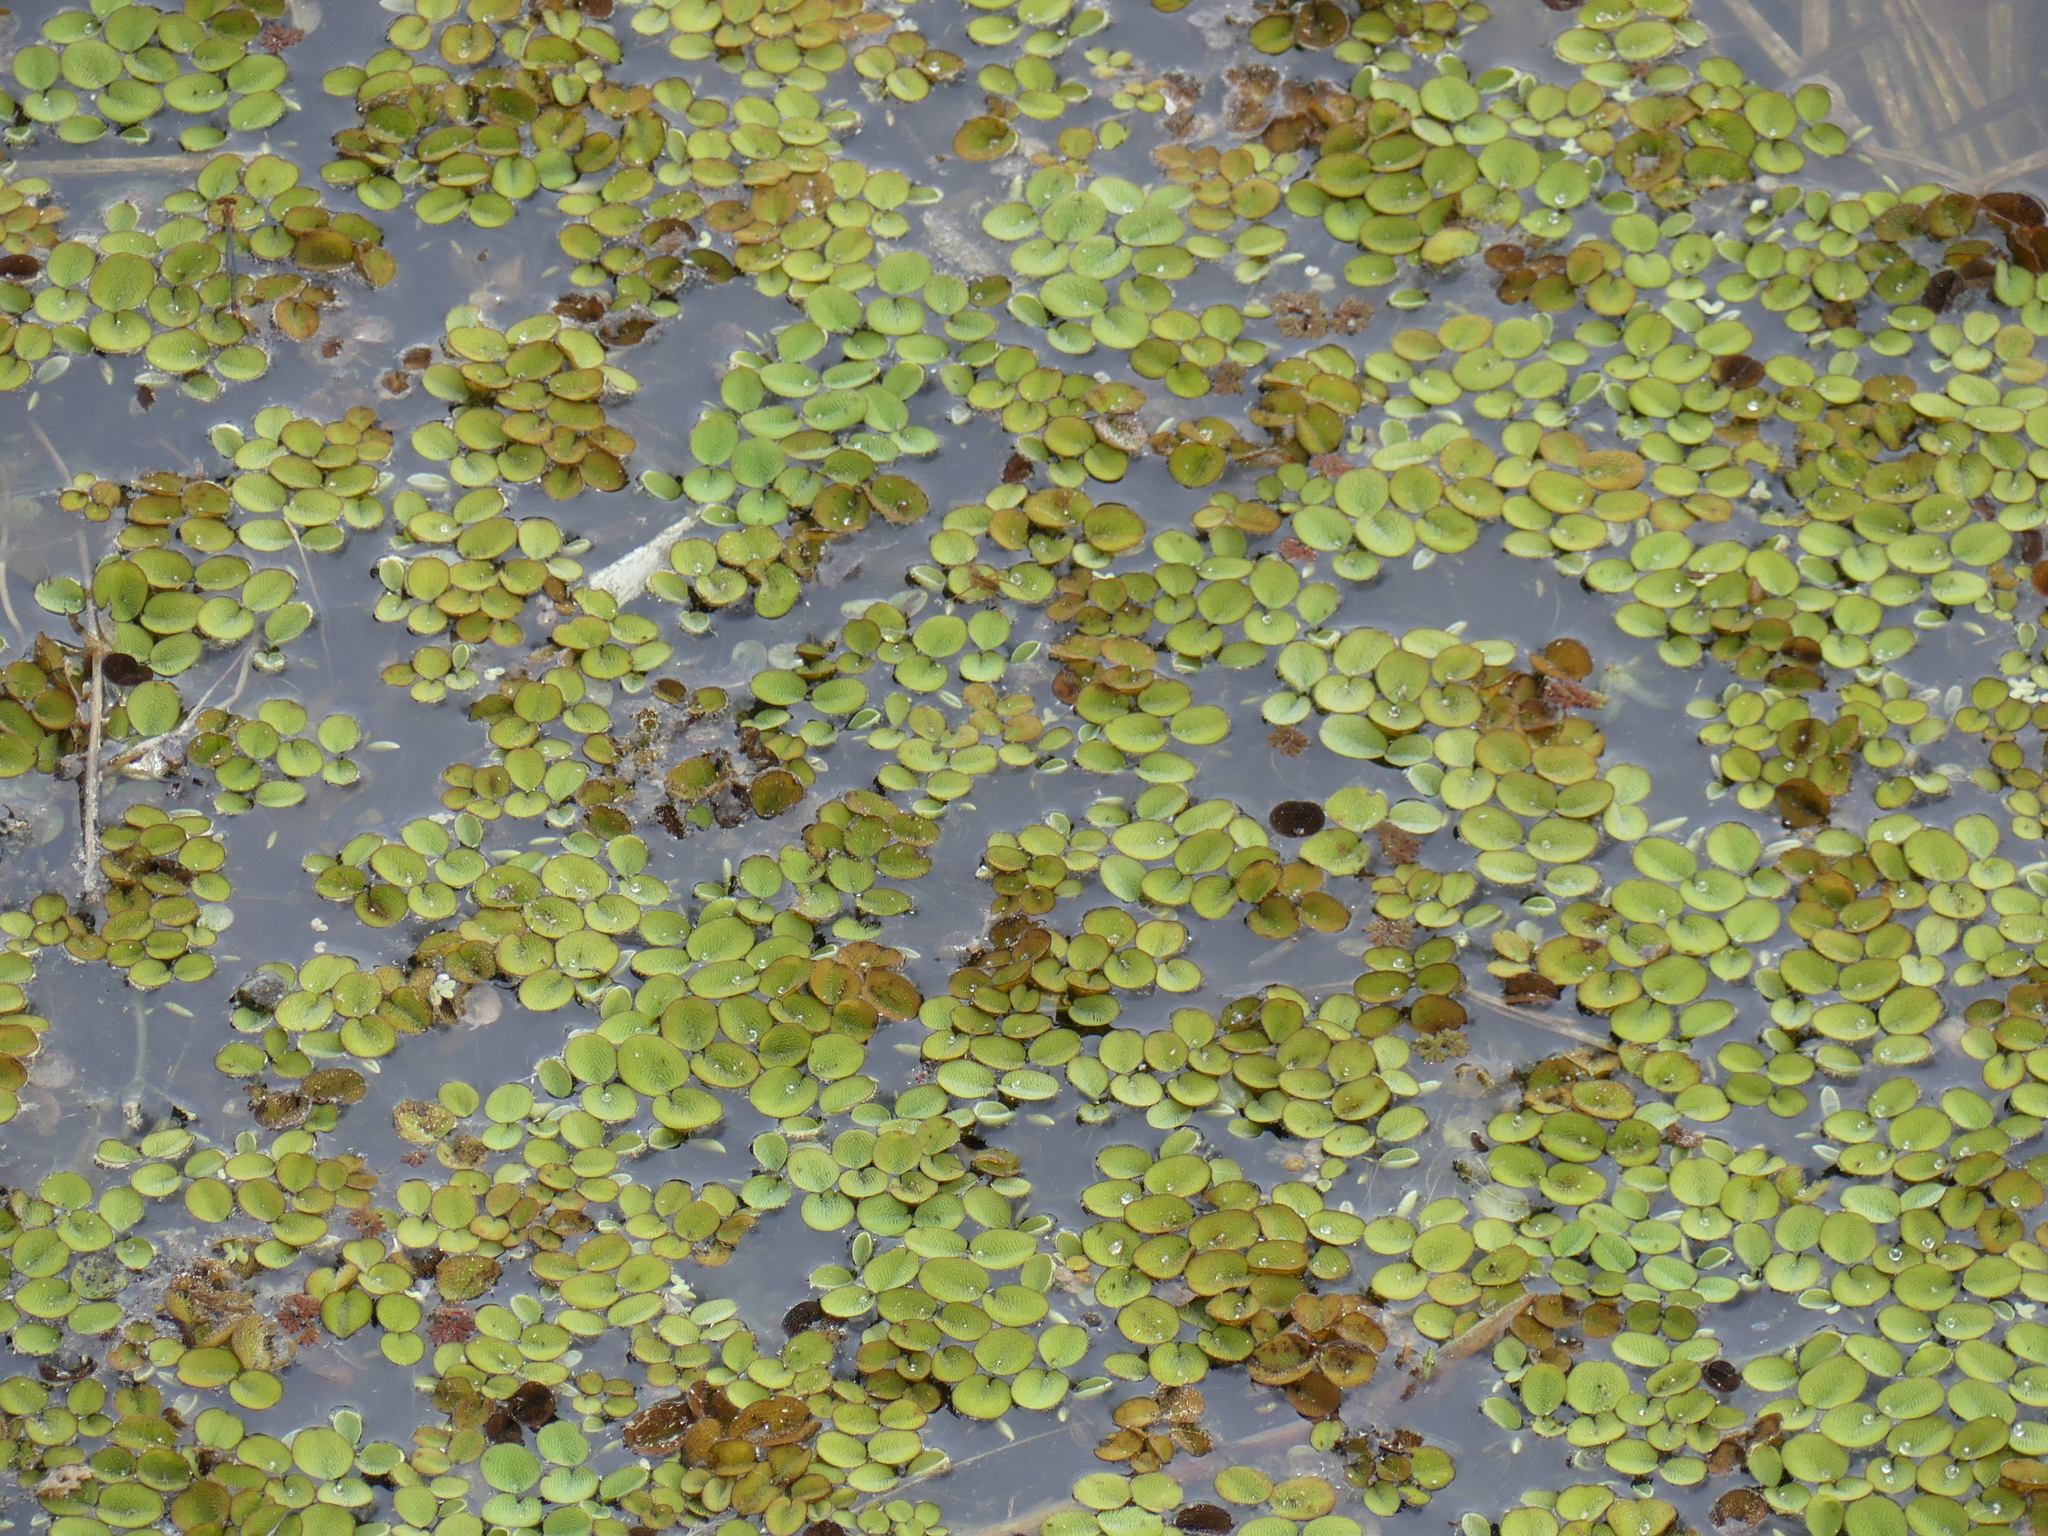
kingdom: Plantae
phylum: Tracheophyta
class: Polypodiopsida
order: Salviniales
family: Salviniaceae
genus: Salvinia
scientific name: Salvinia minima
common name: Water spangles
